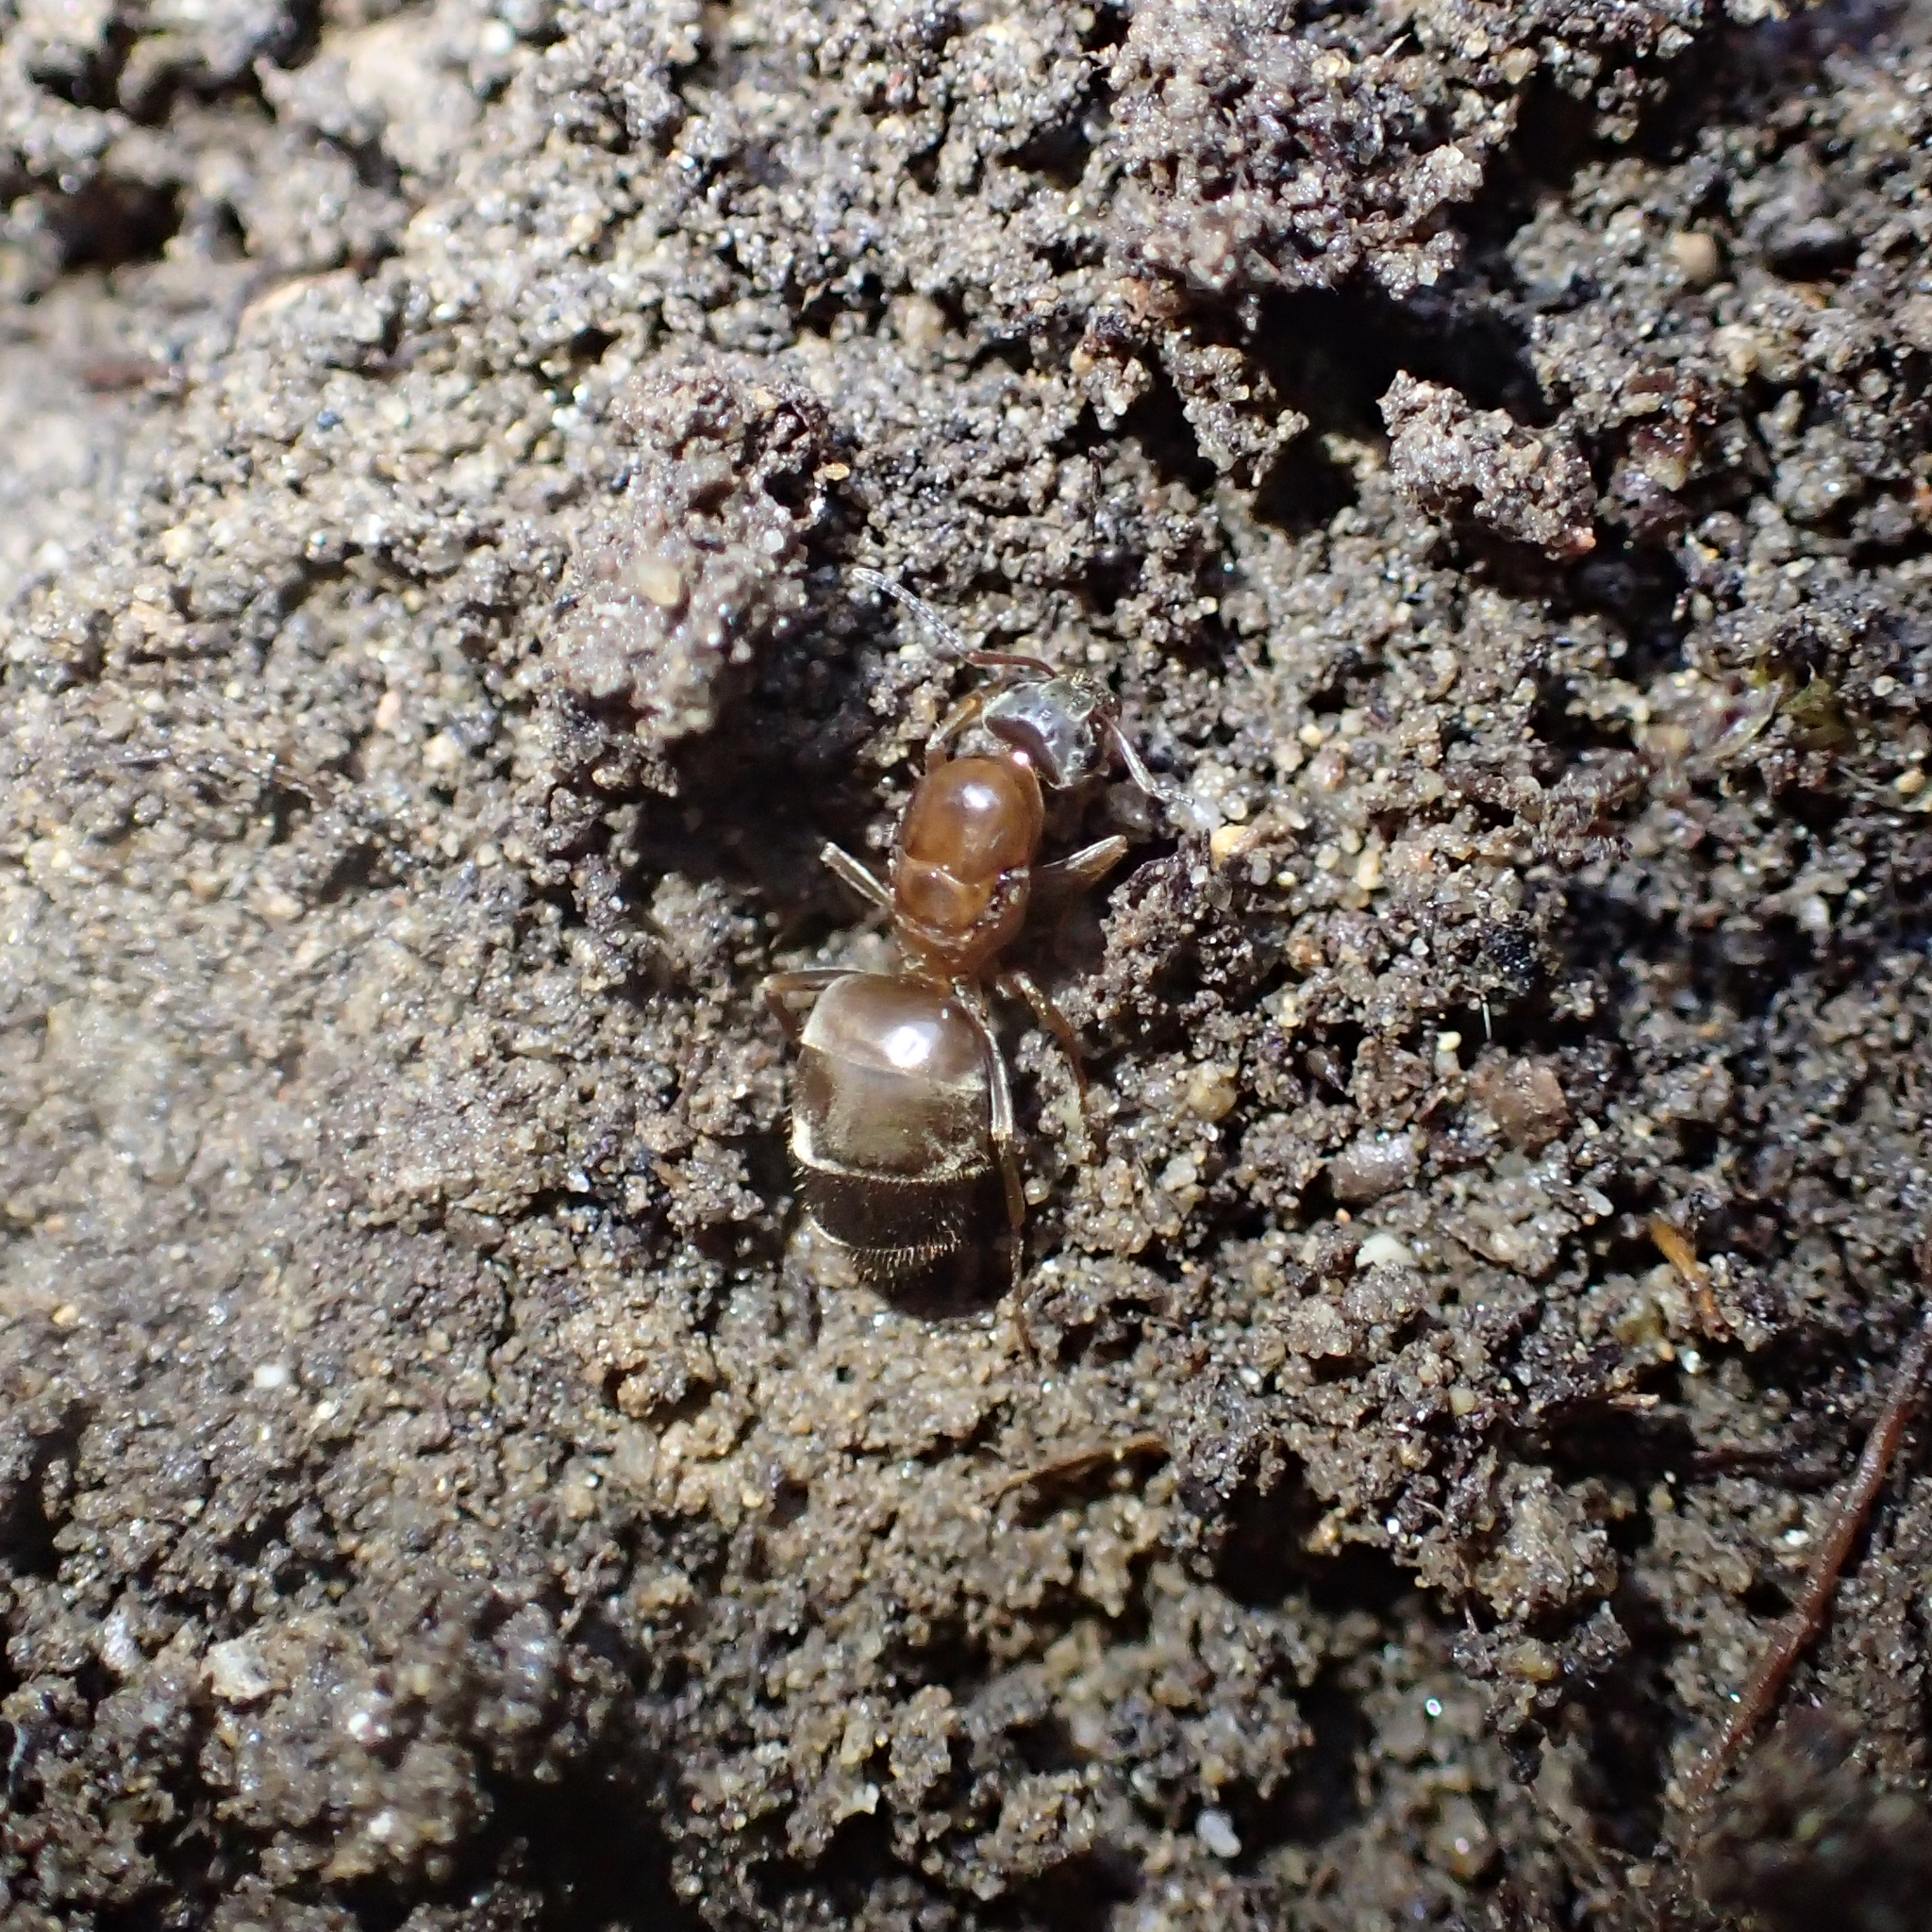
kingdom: Animalia
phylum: Arthropoda
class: Insecta
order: Hymenoptera
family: Formicidae
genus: Lasius
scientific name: Lasius emarginatus
